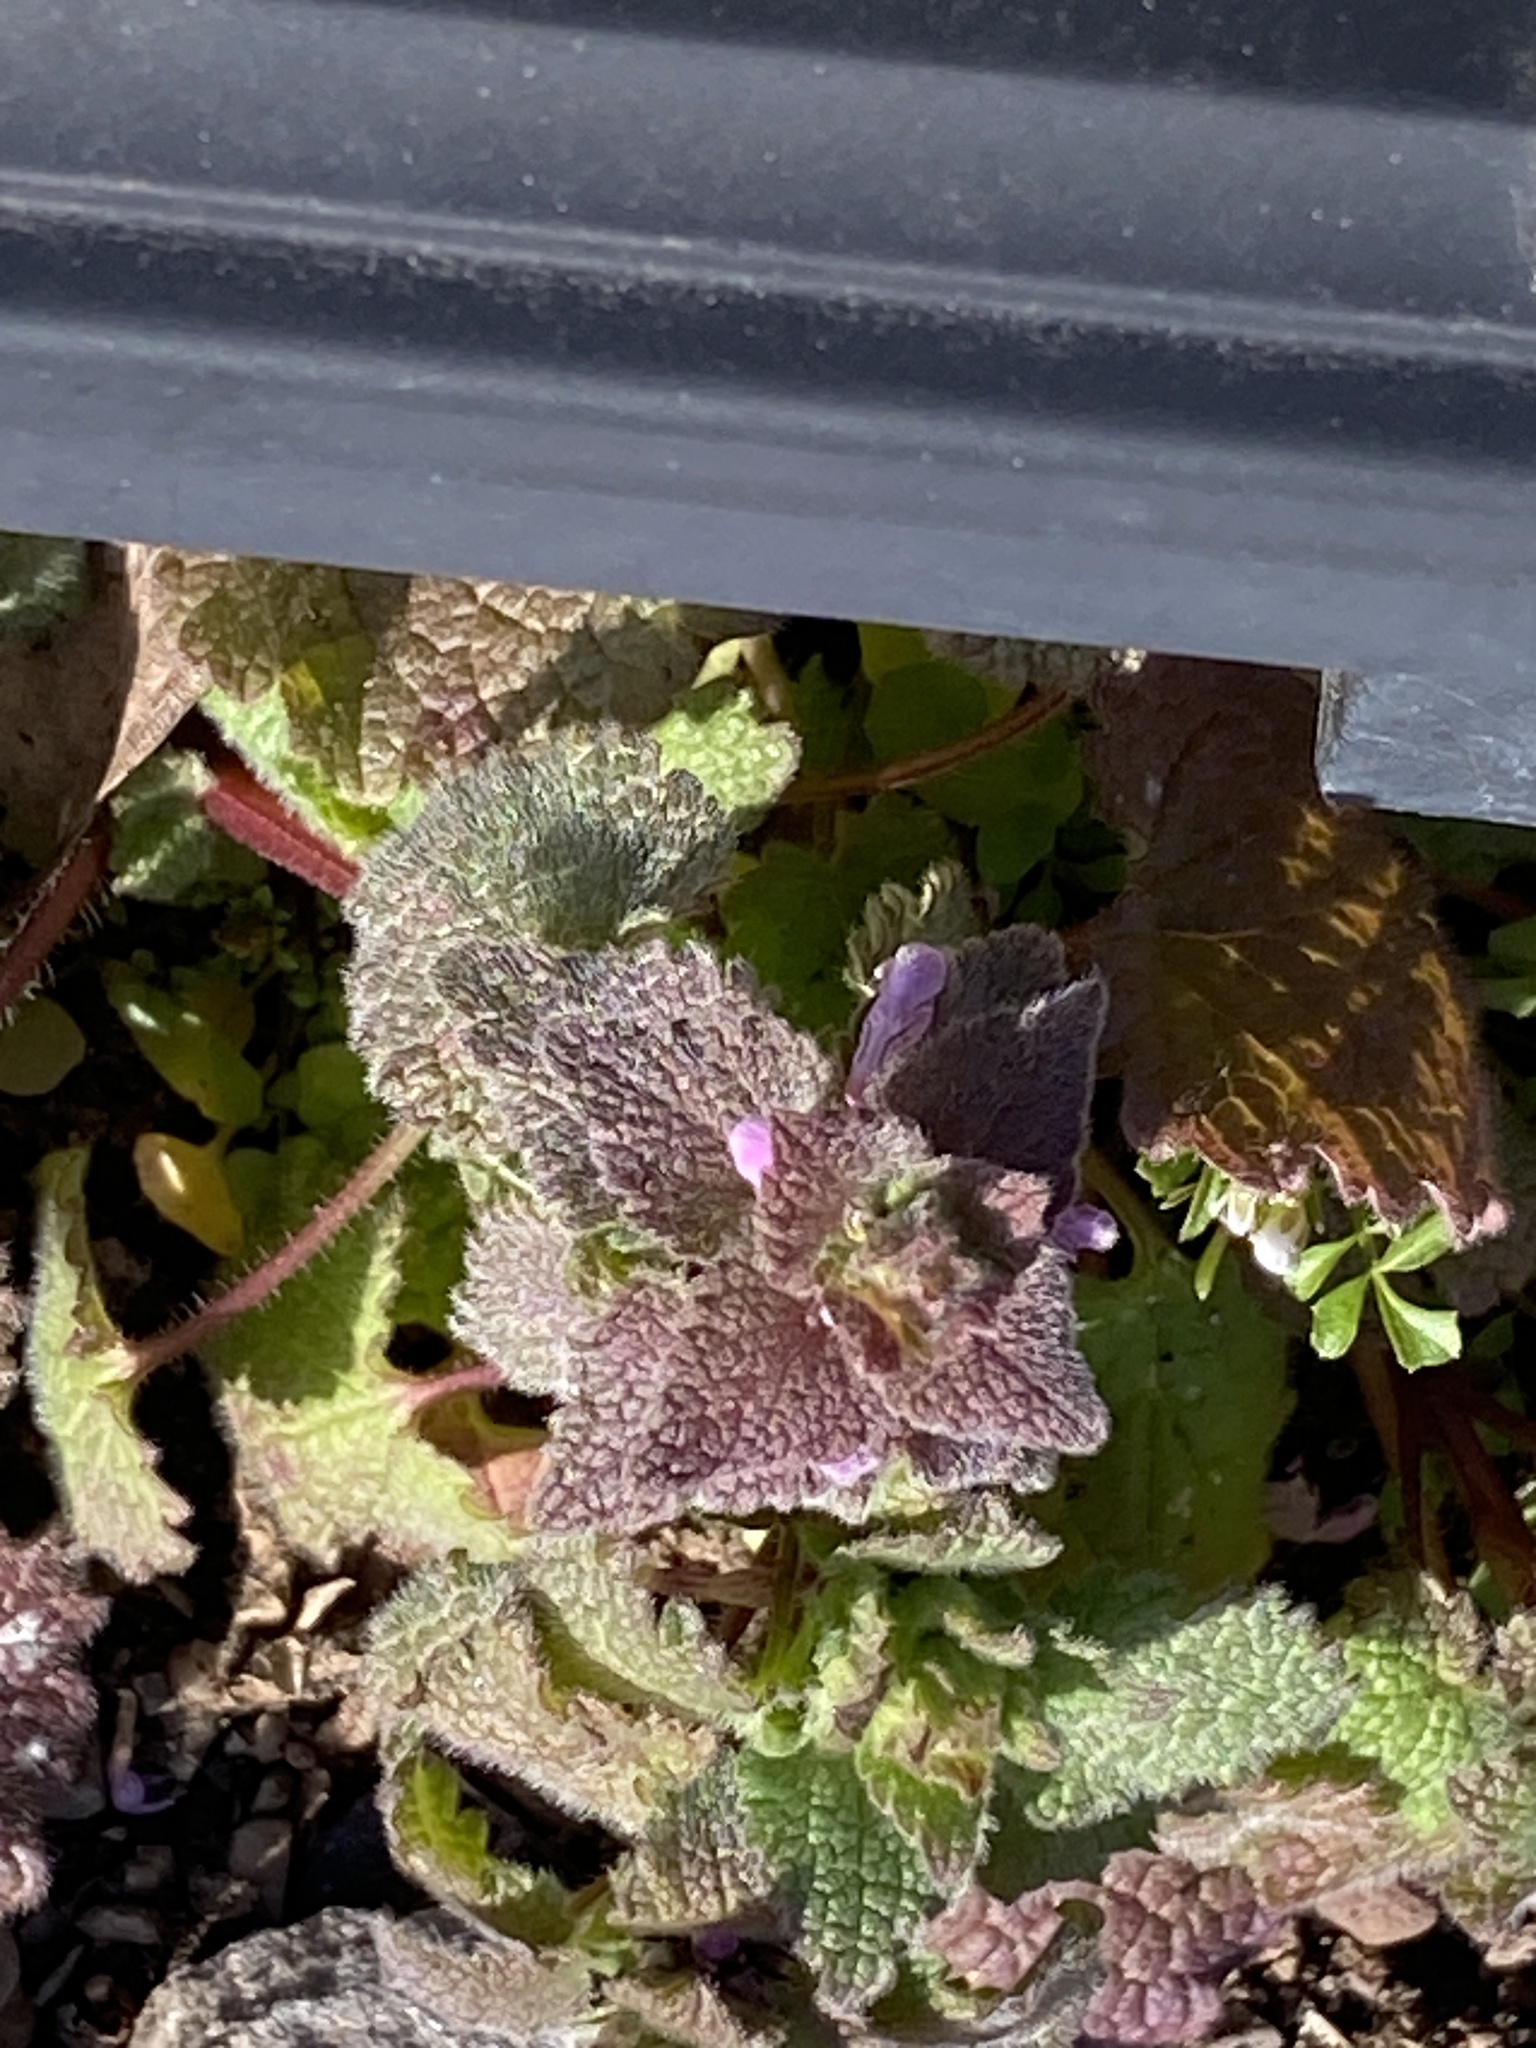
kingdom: Plantae
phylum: Tracheophyta
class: Magnoliopsida
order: Lamiales
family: Lamiaceae
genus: Lamium
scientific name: Lamium purpureum
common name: Red dead-nettle
